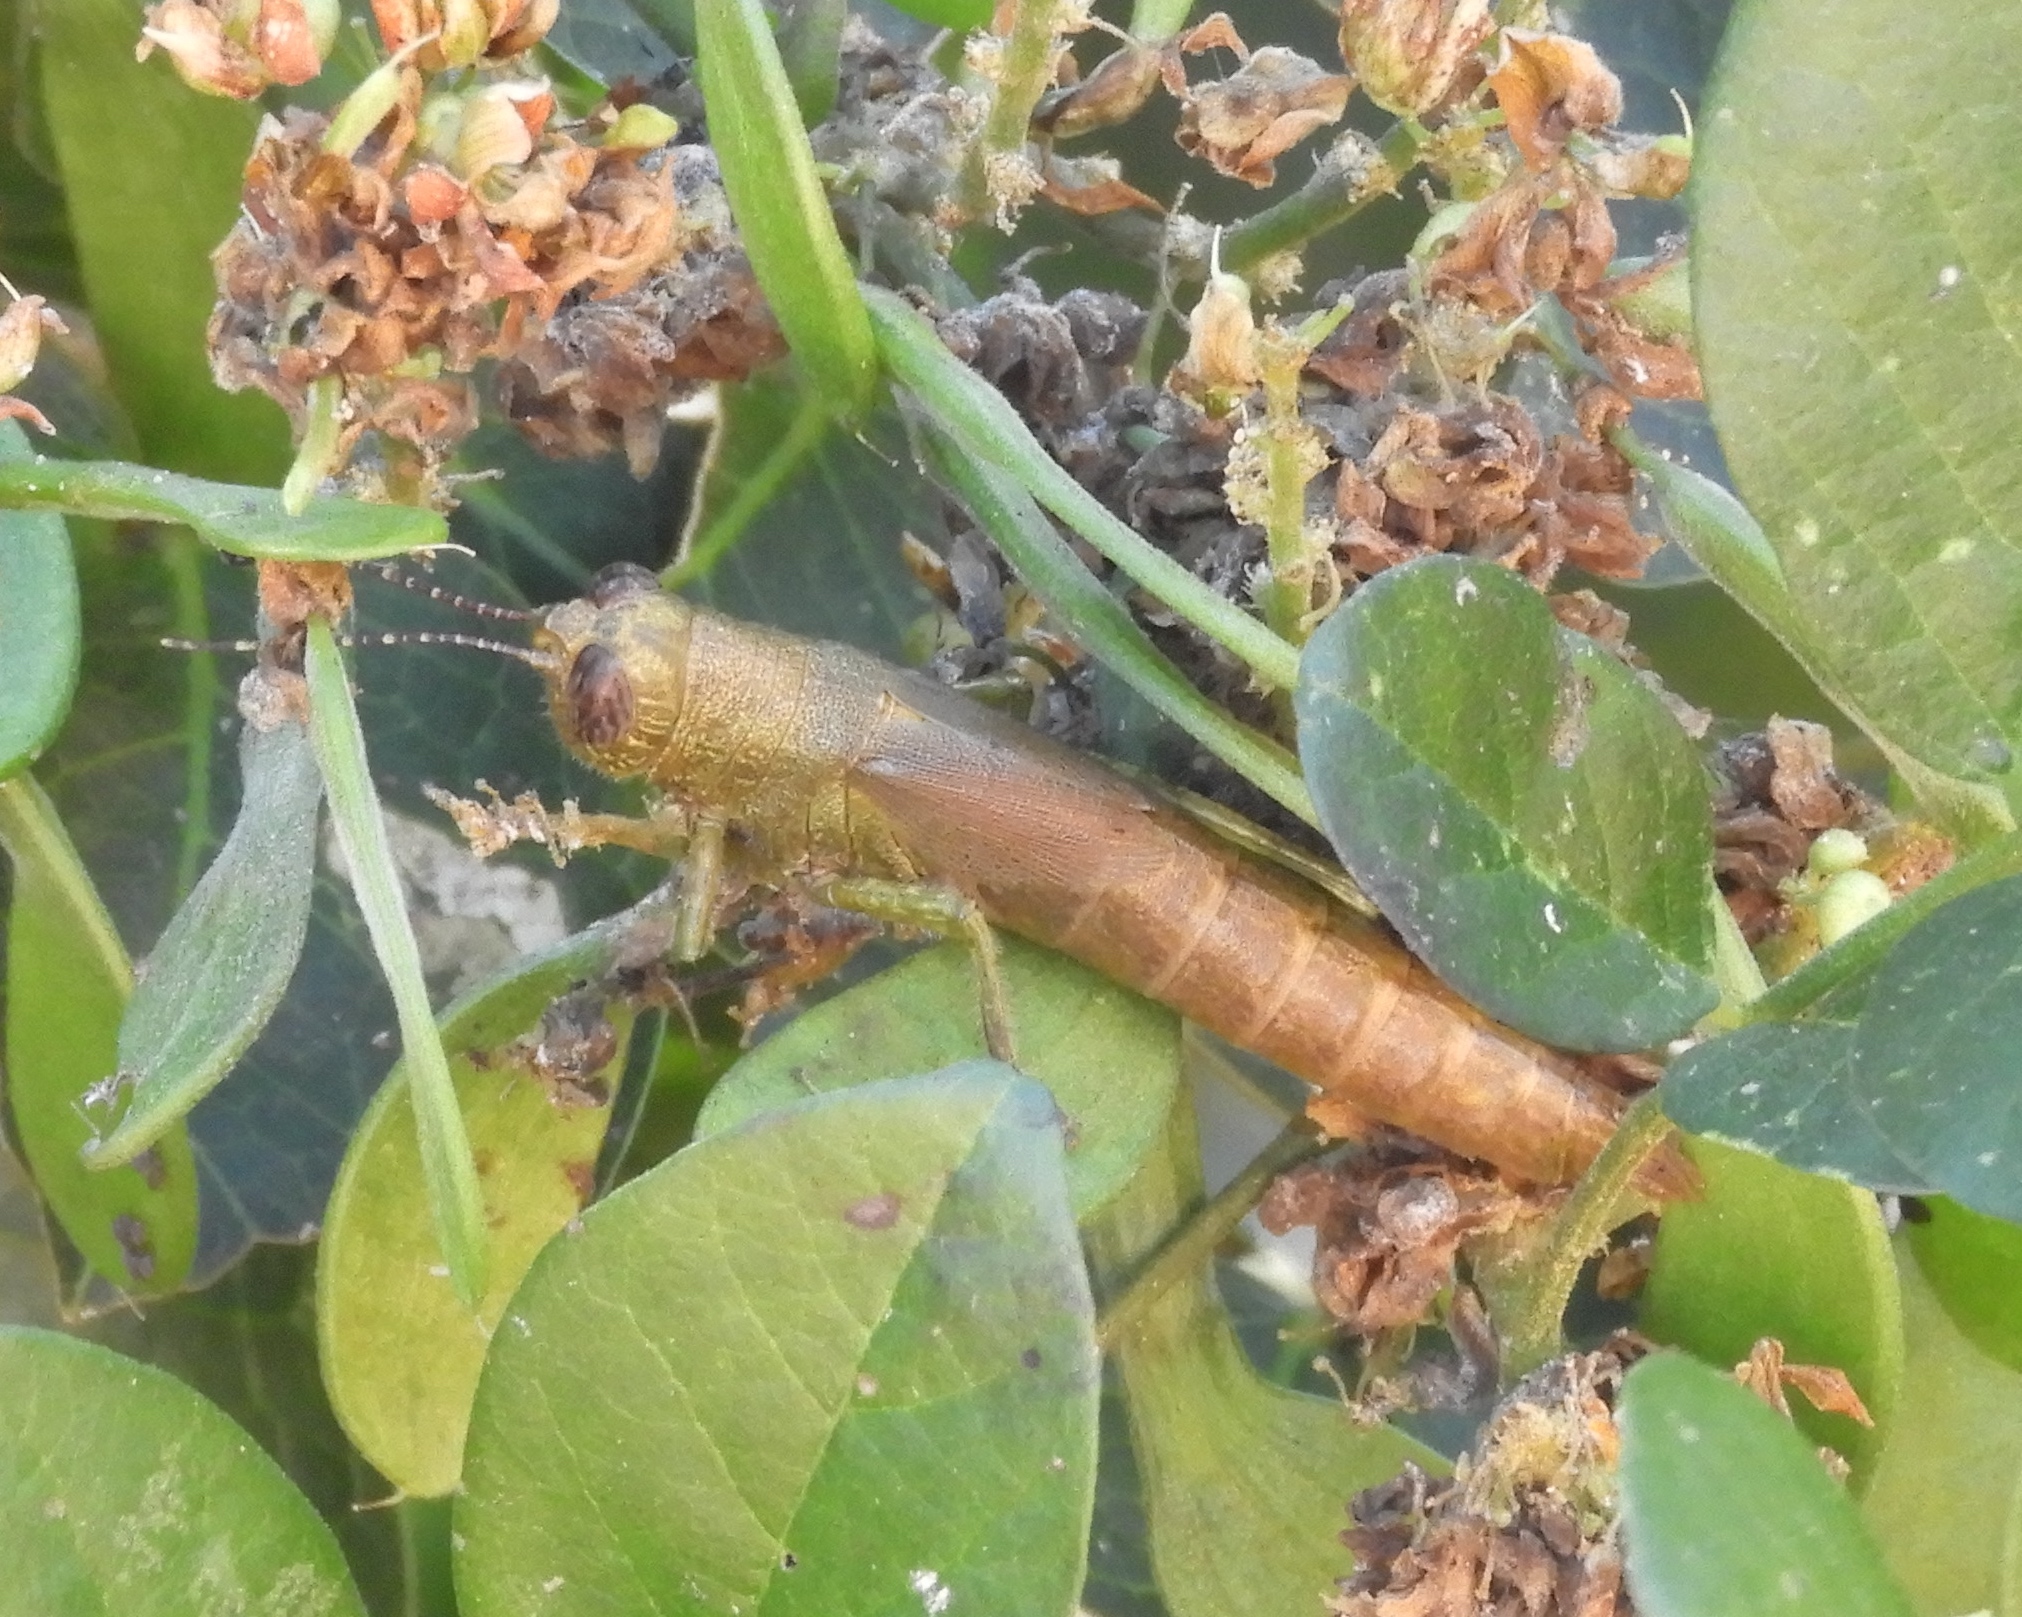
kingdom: Animalia
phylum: Arthropoda
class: Insecta
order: Orthoptera
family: Acrididae
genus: Proctolabus
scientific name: Proctolabus cerciatus
